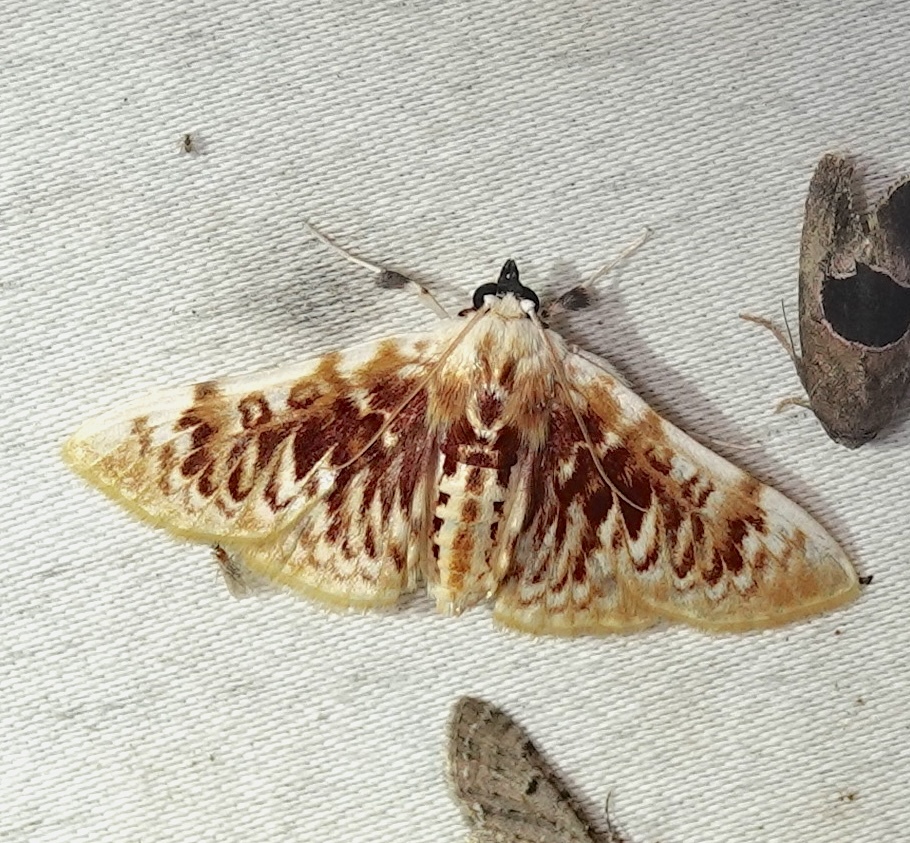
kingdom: Animalia
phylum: Arthropoda
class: Insecta
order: Lepidoptera
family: Crambidae
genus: Polygrammodes
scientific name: Polygrammodes sanguinalis
